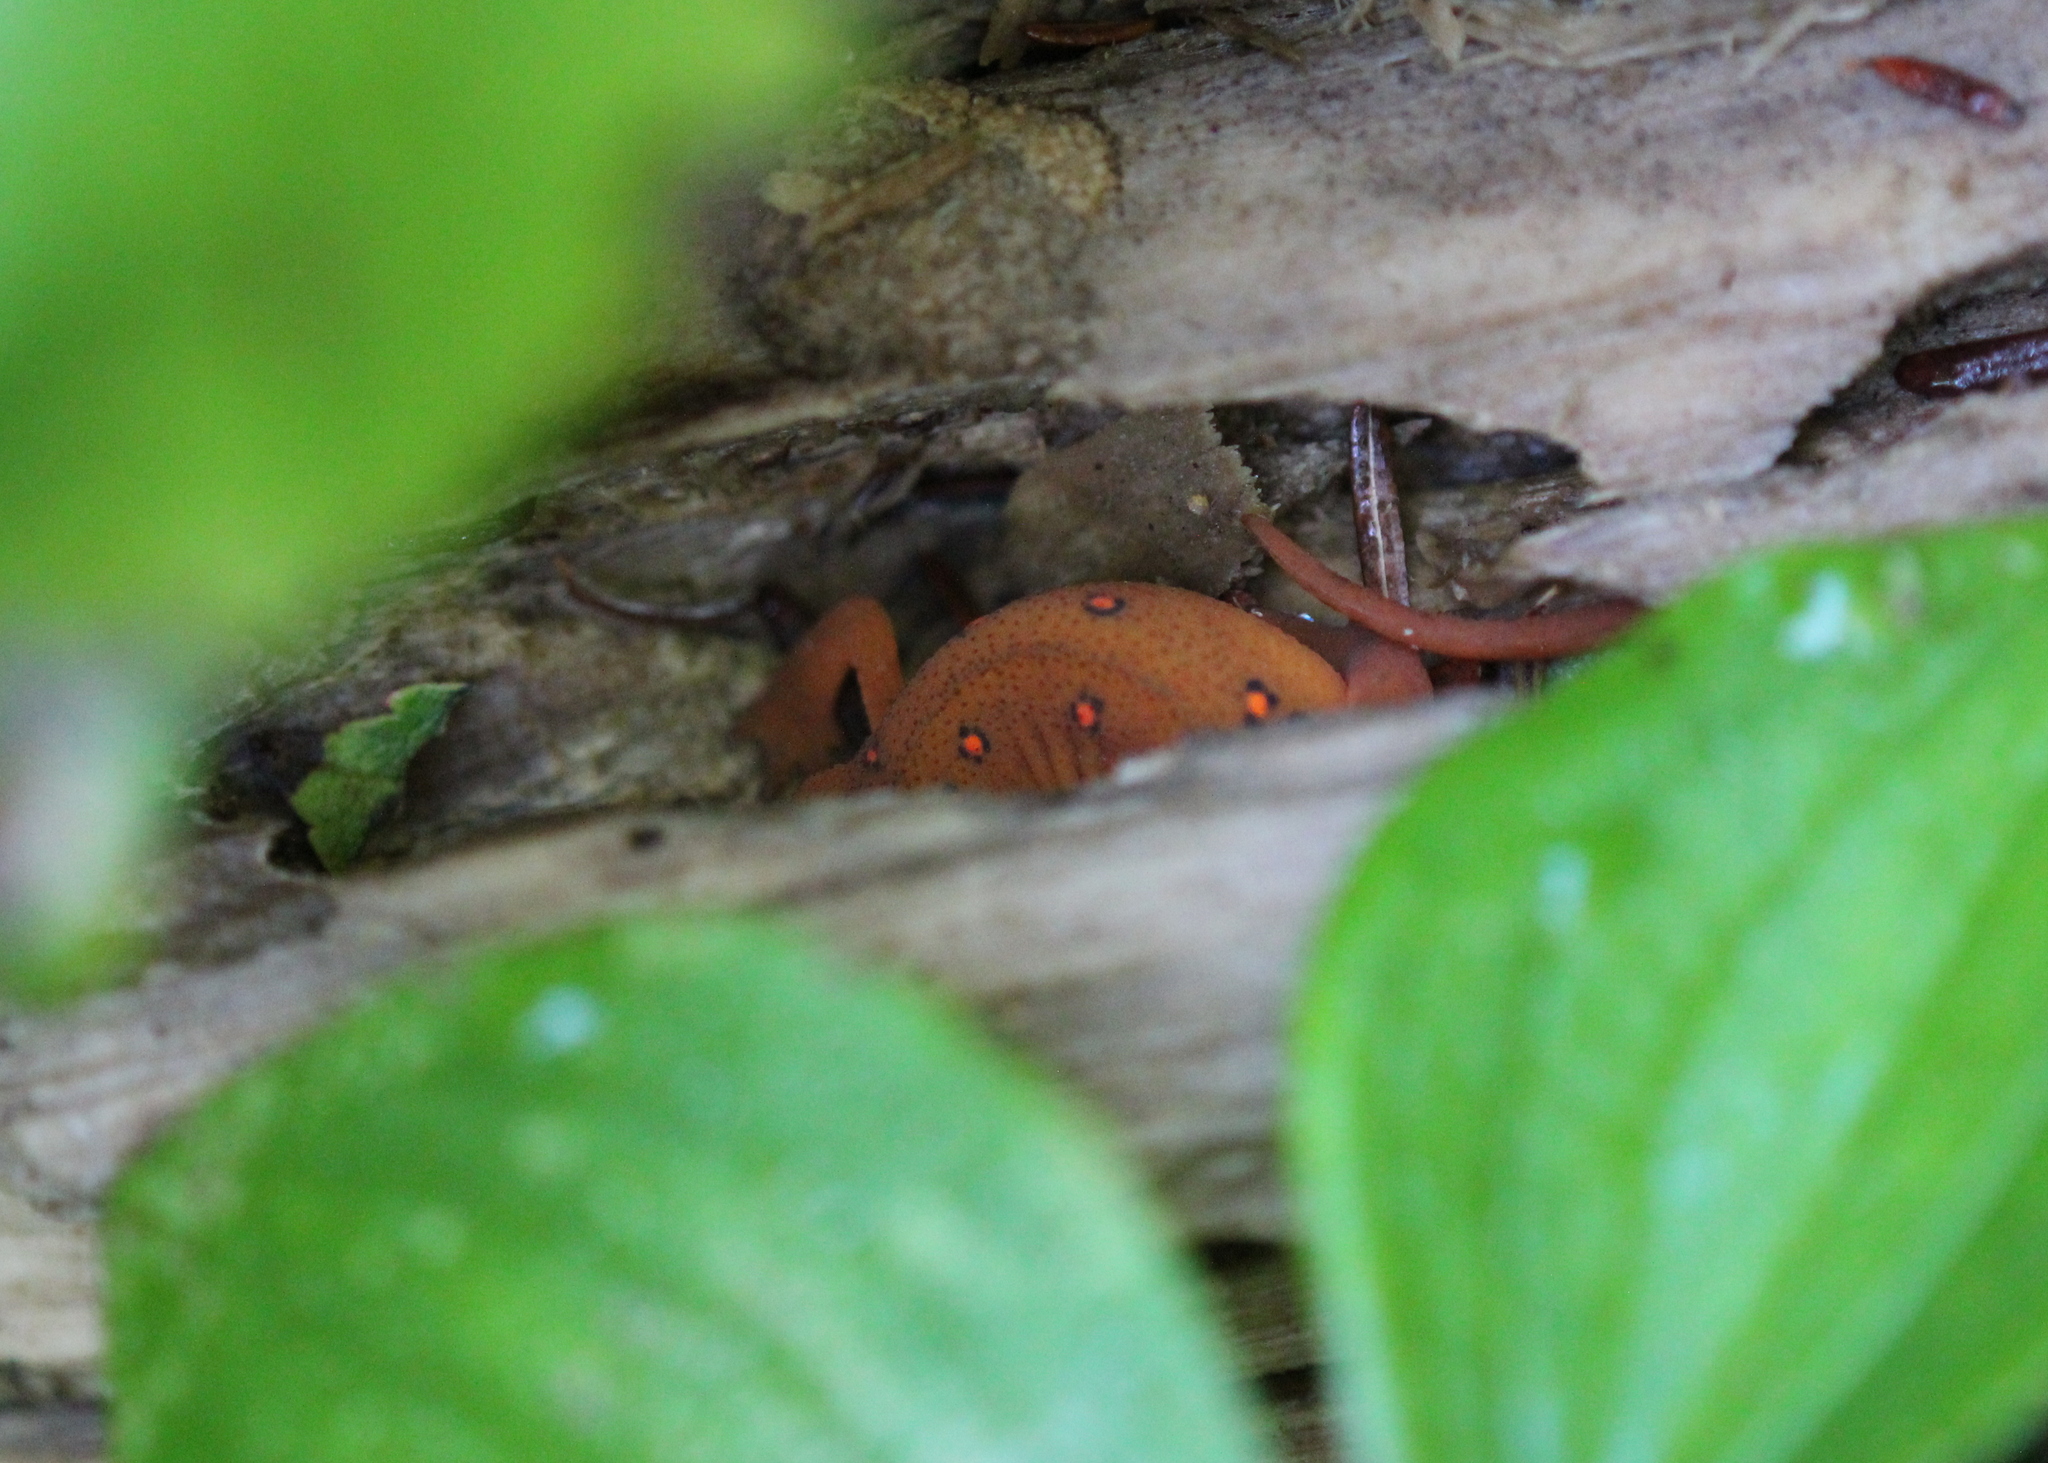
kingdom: Animalia
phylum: Chordata
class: Amphibia
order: Caudata
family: Salamandridae
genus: Notophthalmus
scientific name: Notophthalmus viridescens
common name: Eastern newt
